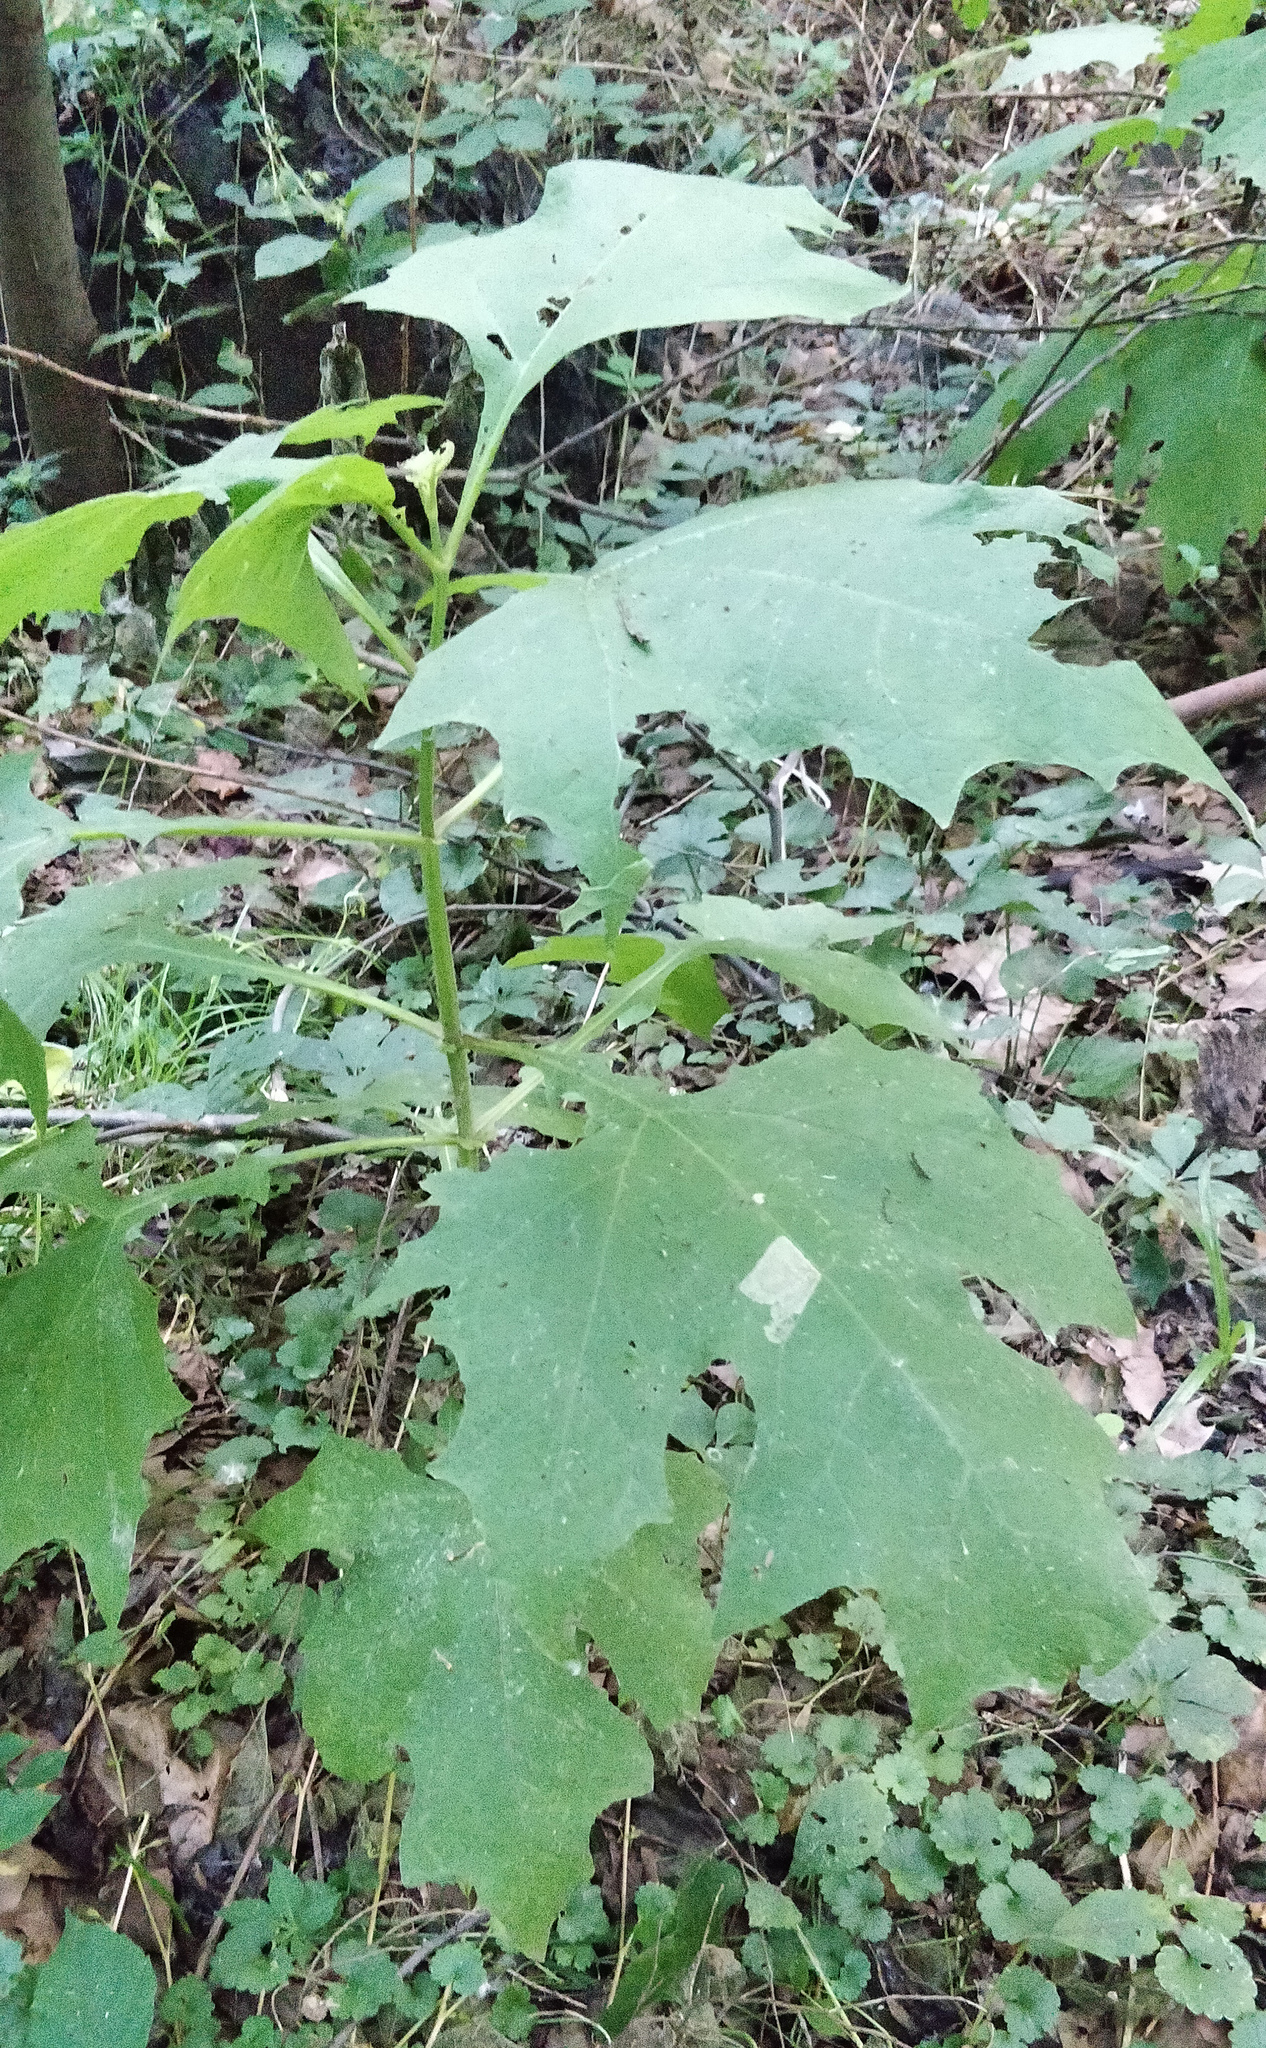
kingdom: Plantae
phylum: Tracheophyta
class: Magnoliopsida
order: Asterales
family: Asteraceae
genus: Smallanthus
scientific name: Smallanthus uvedalia
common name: Bear's-foot
